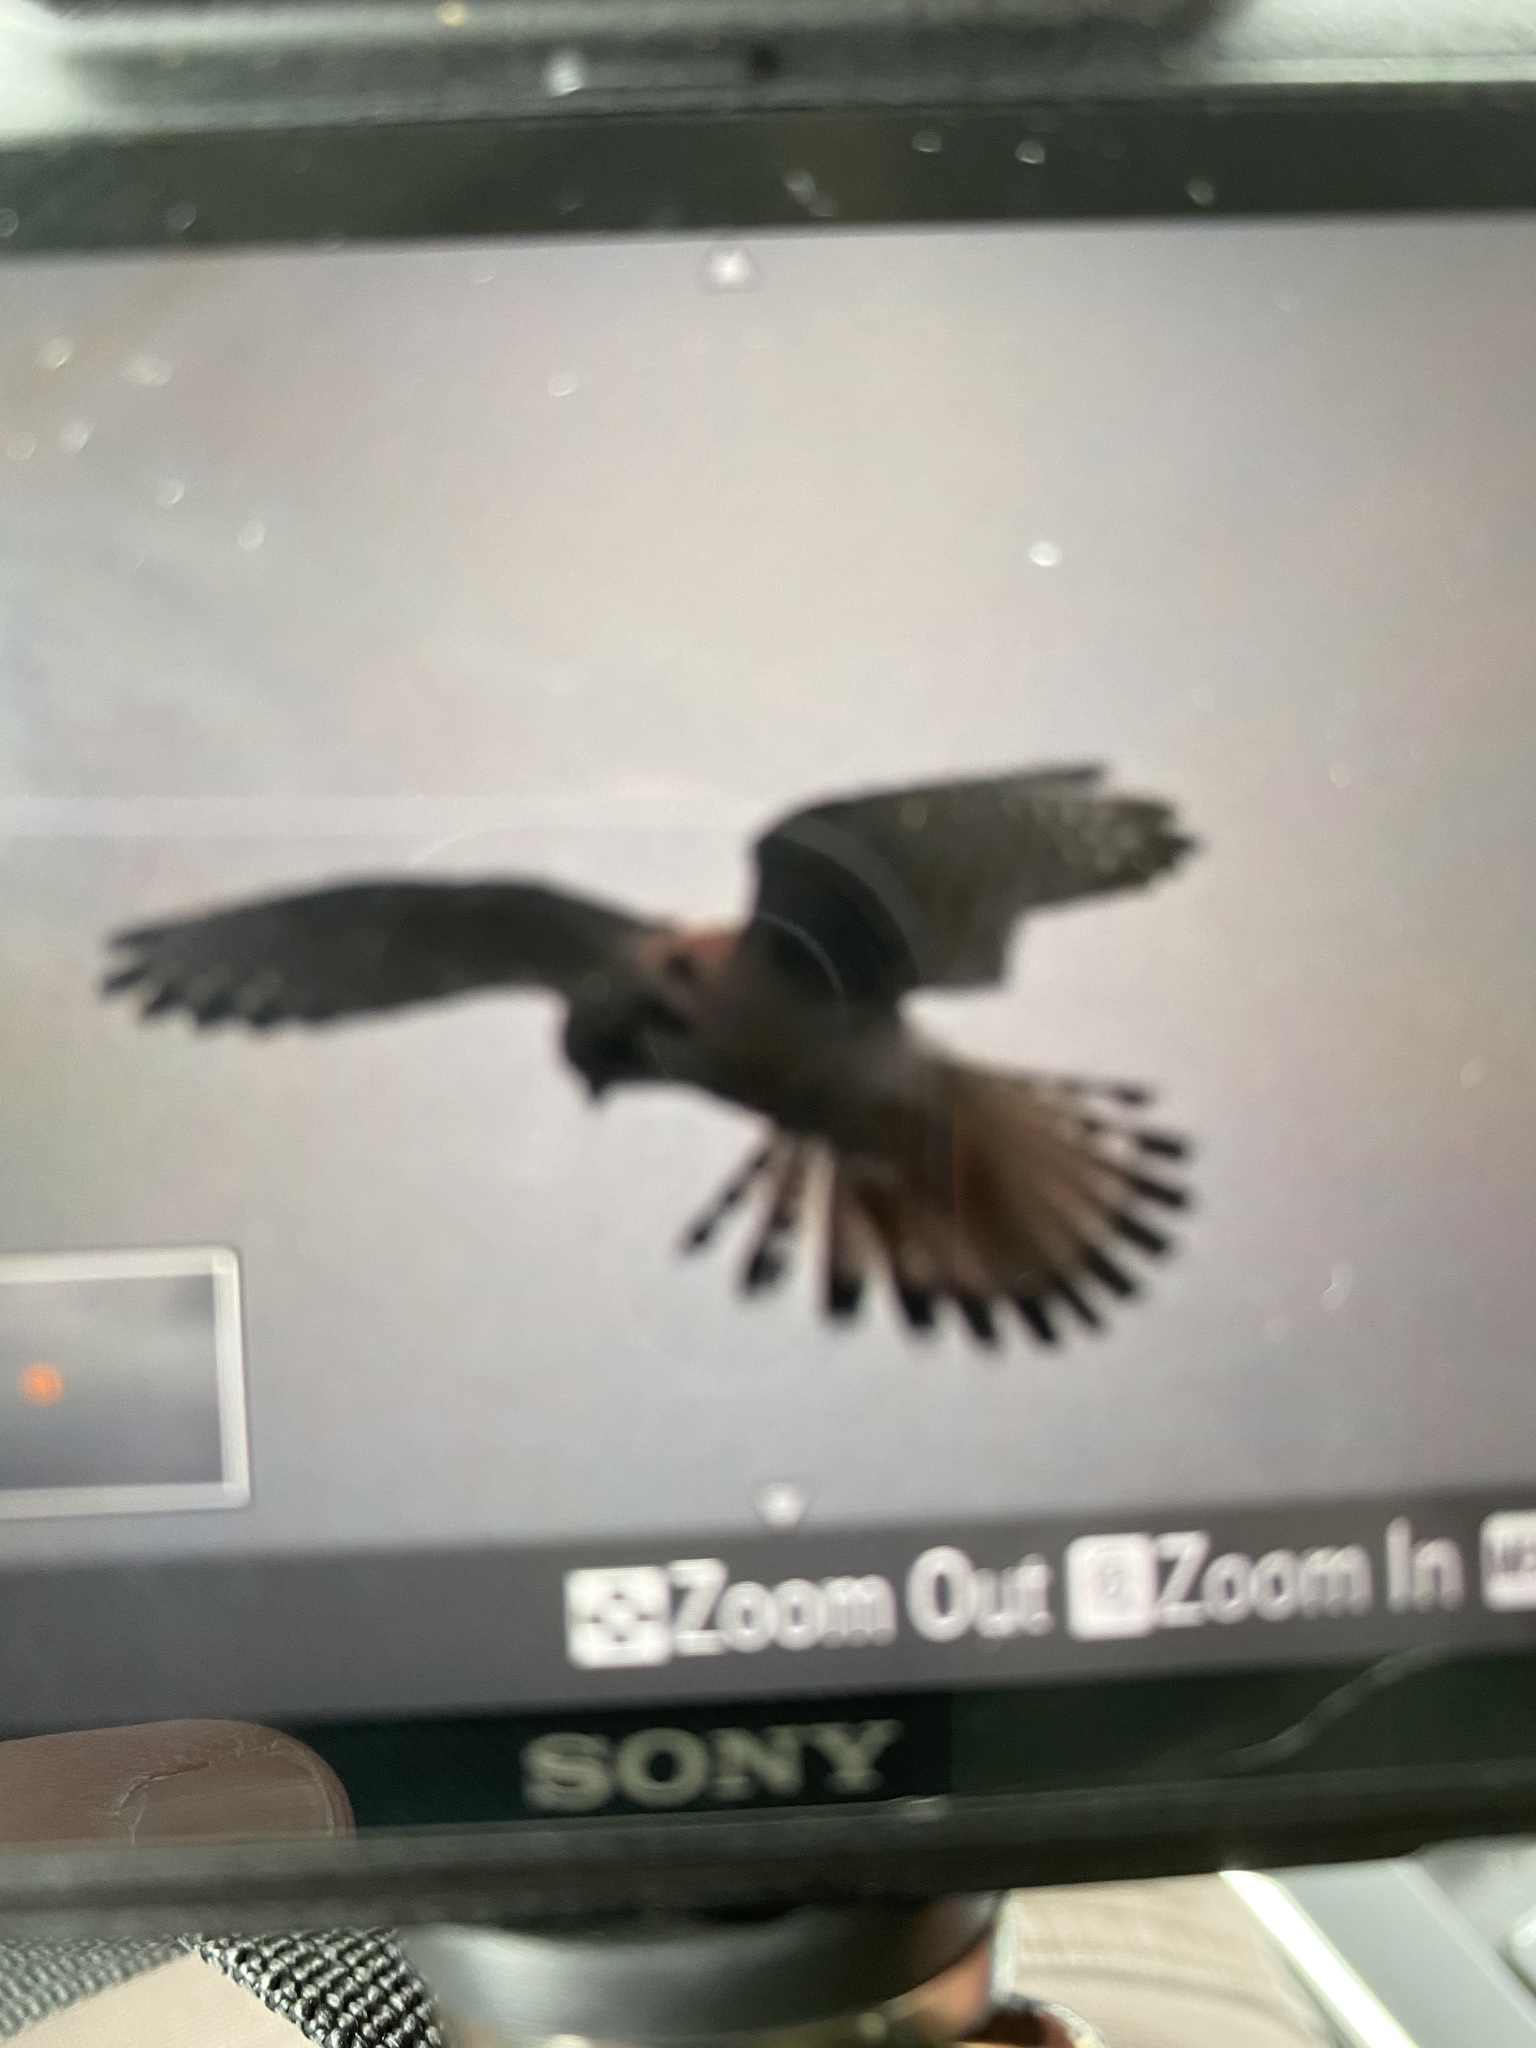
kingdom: Animalia
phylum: Chordata
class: Aves
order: Falconiformes
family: Falconidae
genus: Falco
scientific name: Falco sparverius
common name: American kestrel
